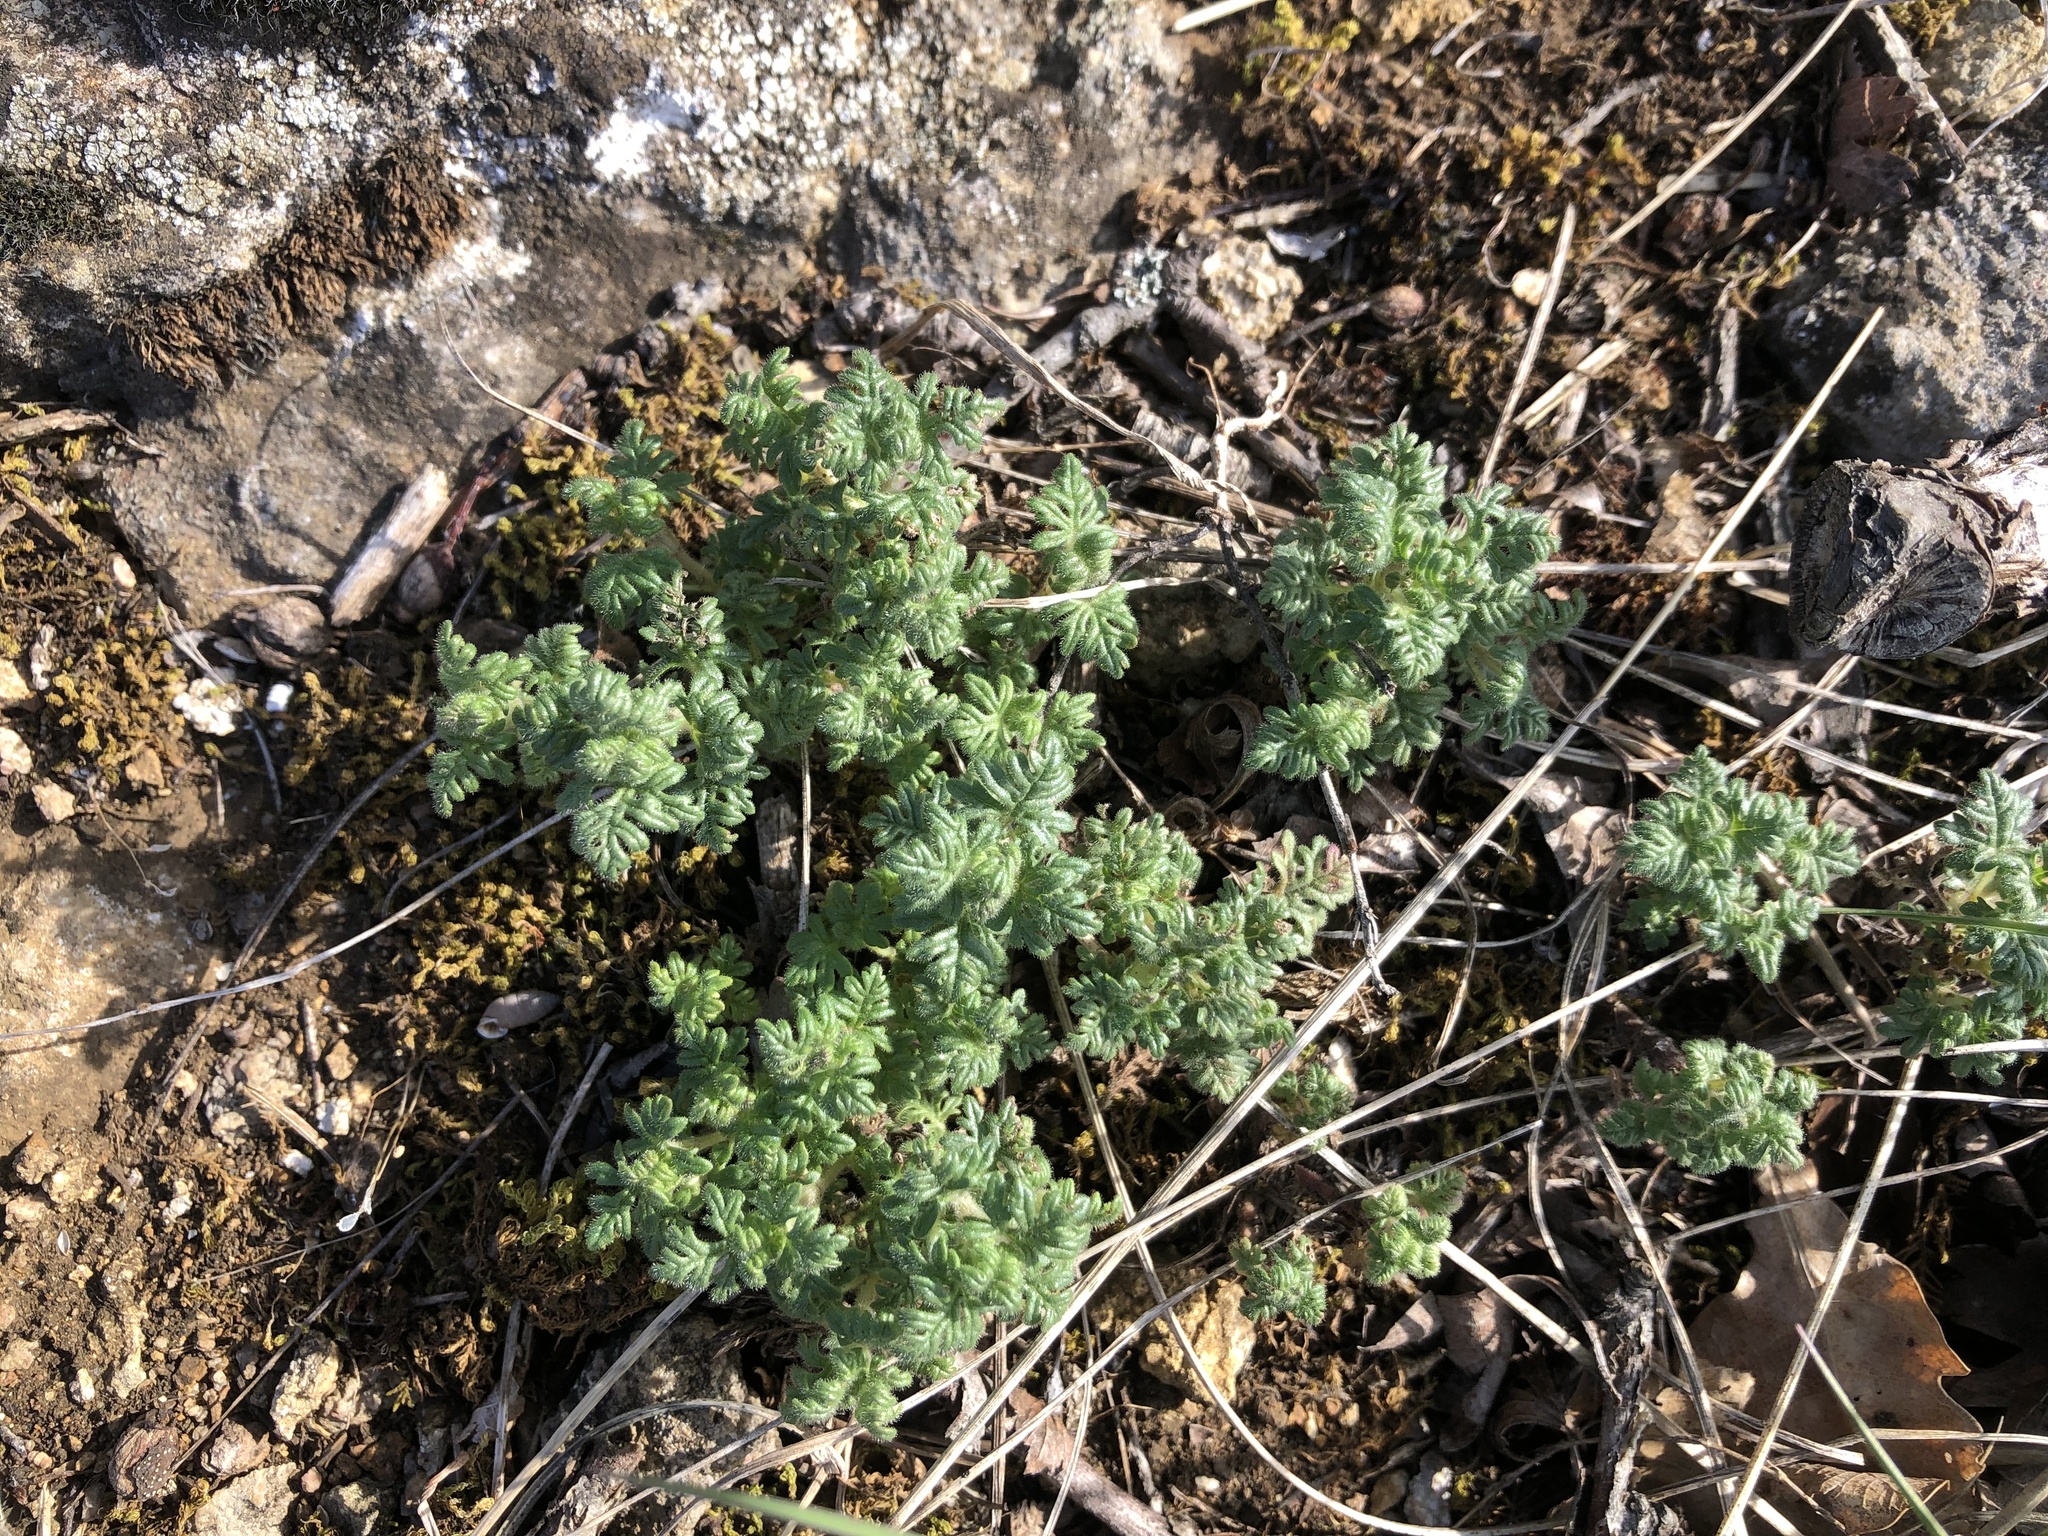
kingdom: Plantae
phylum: Tracheophyta
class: Magnoliopsida
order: Lamiales
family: Lamiaceae
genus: Teucrium
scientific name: Teucrium botrys
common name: Cut-leaved germander
